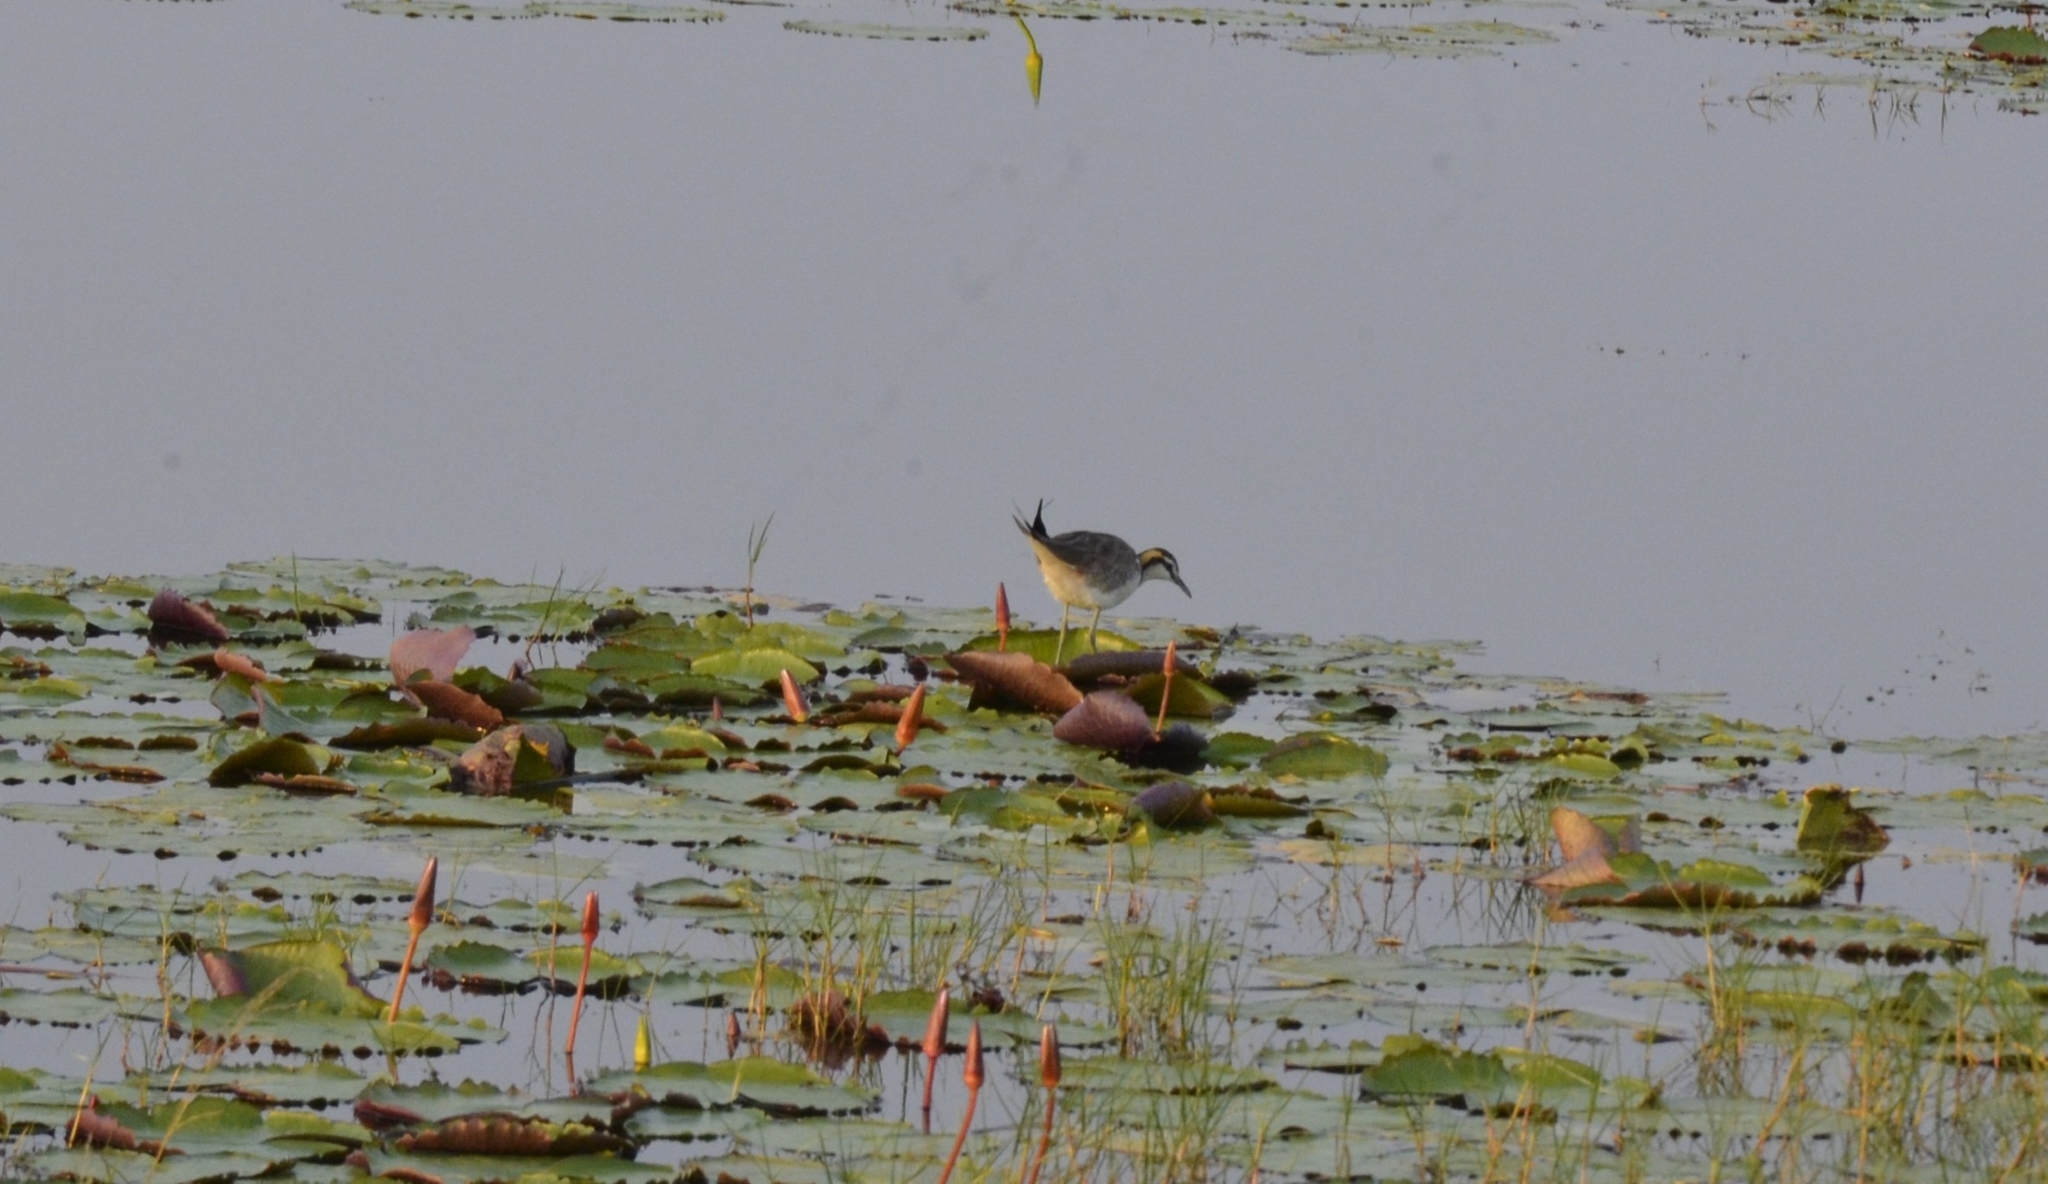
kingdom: Animalia
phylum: Chordata
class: Aves
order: Charadriiformes
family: Jacanidae
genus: Hydrophasianus
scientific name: Hydrophasianus chirurgus
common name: Pheasant-tailed jacana
